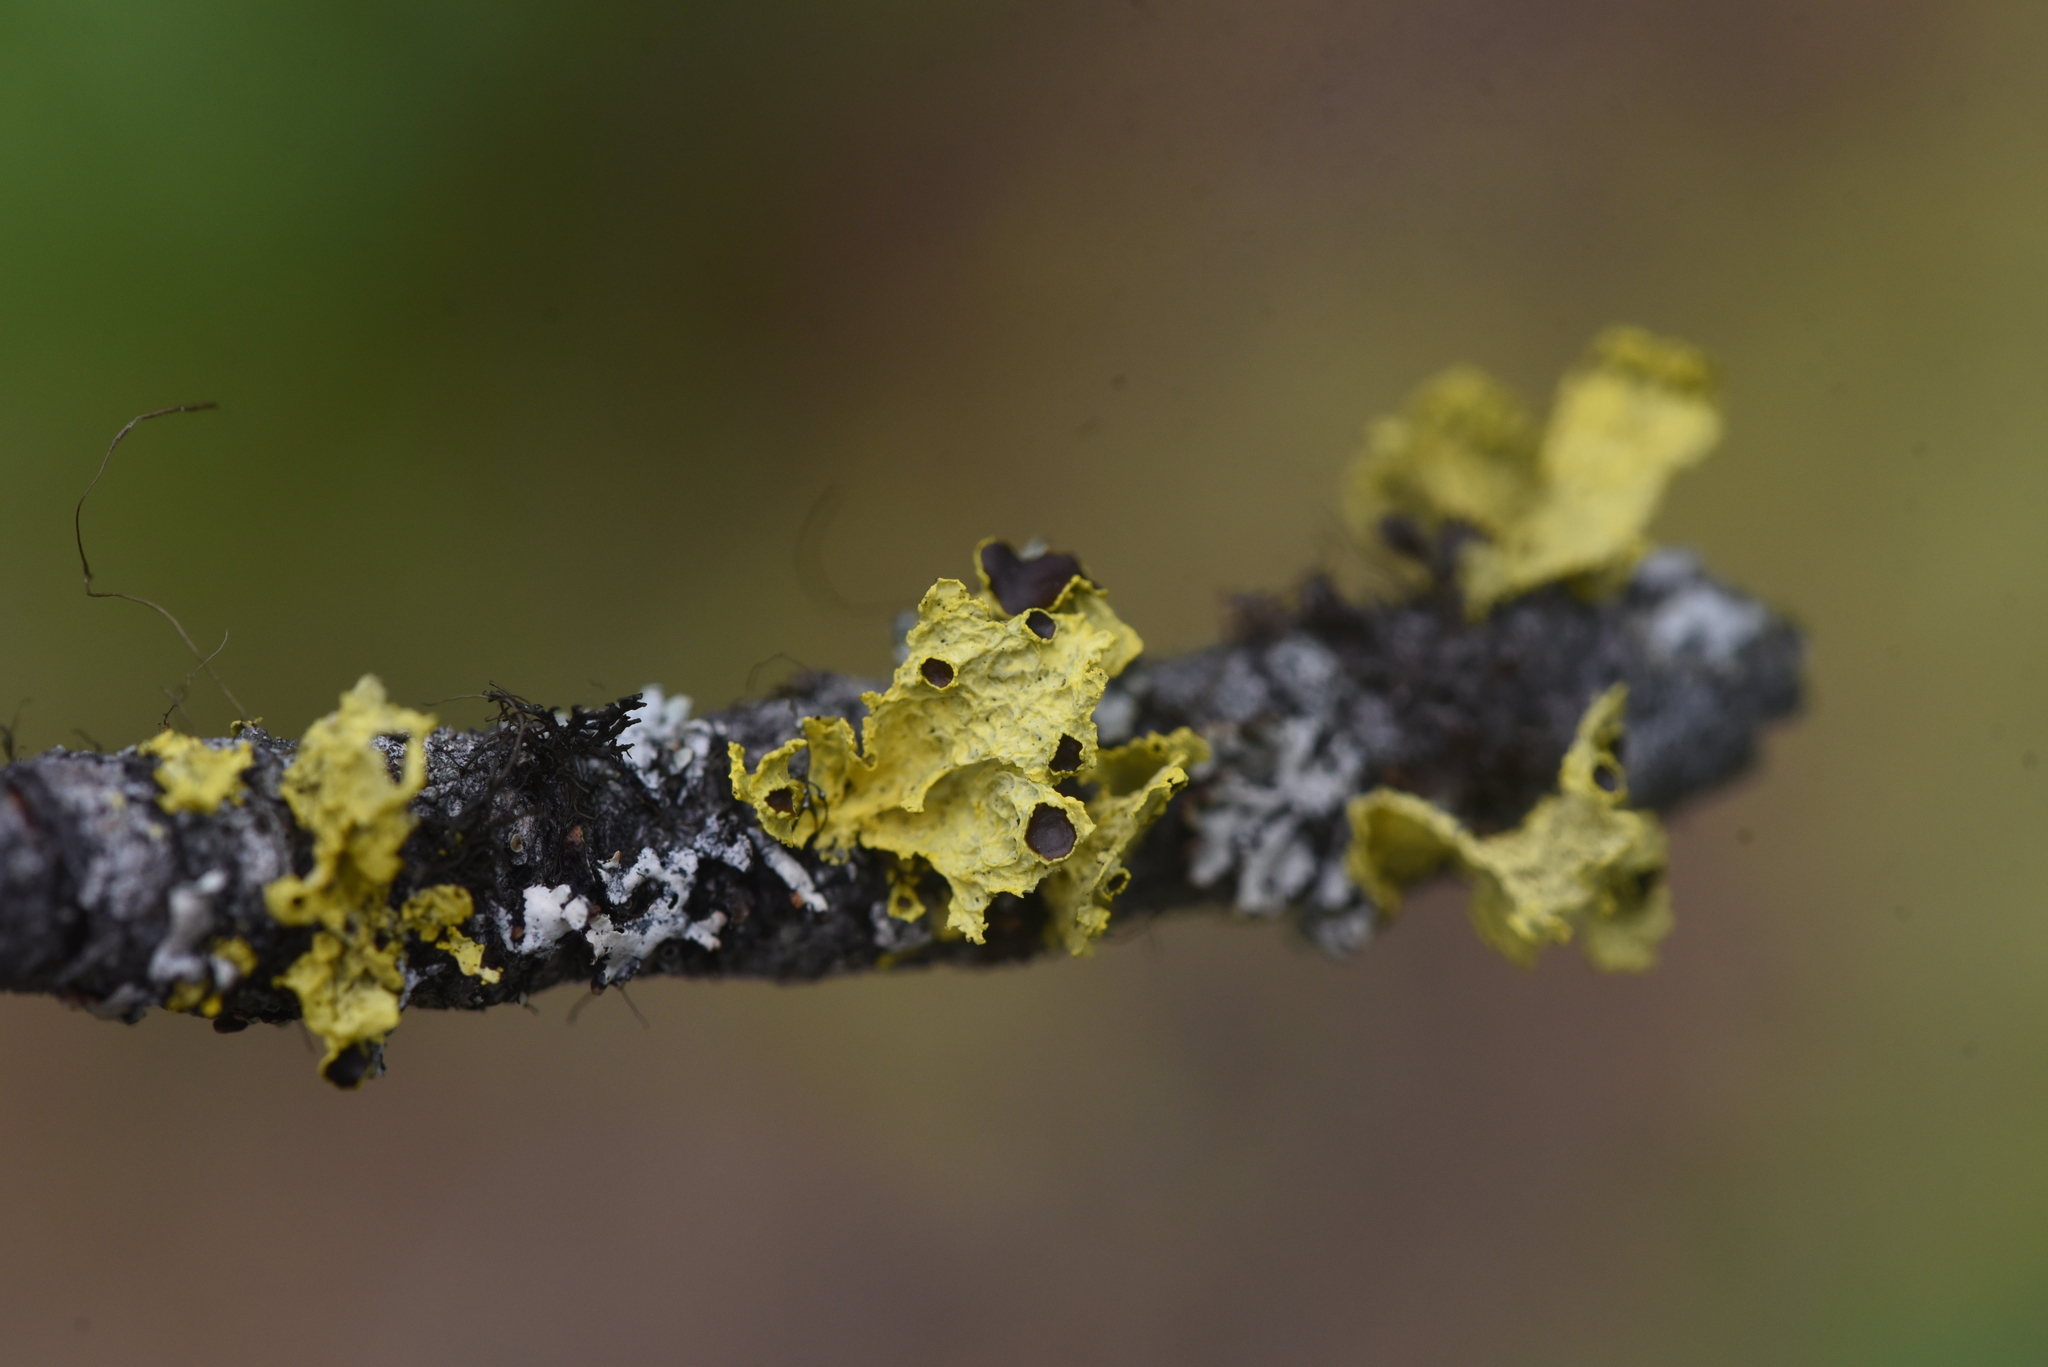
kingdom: Fungi
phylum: Ascomycota
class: Lecanoromycetes
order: Lecanorales
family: Parmeliaceae
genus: Vulpicida
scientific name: Vulpicida canadensis
